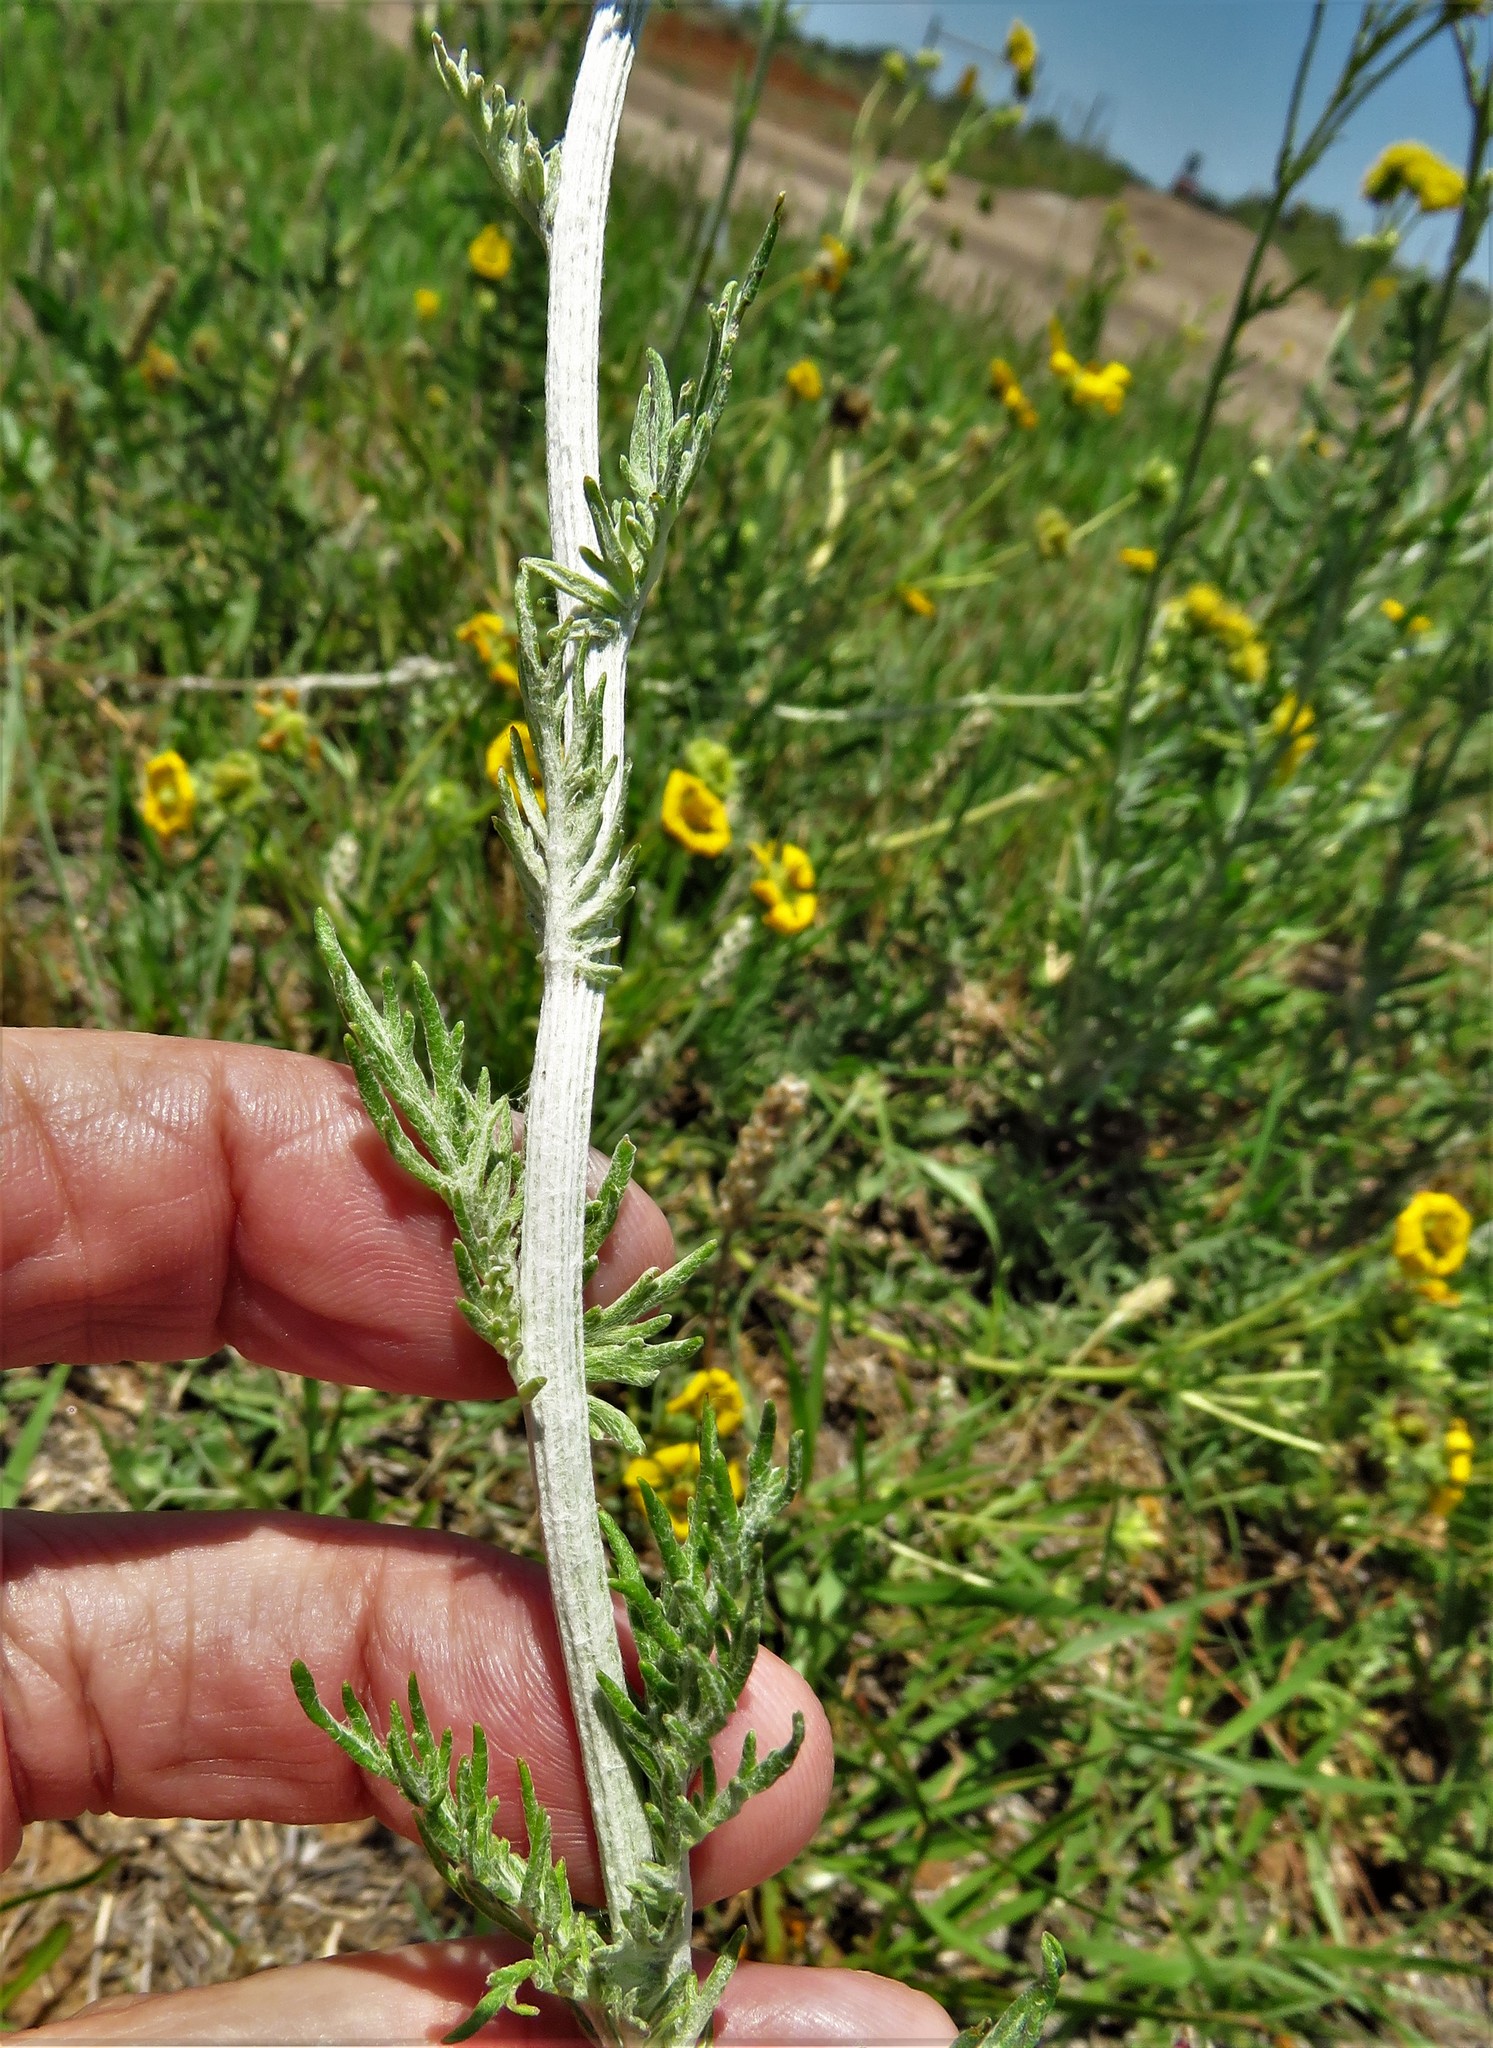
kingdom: Plantae
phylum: Tracheophyta
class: Magnoliopsida
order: Asterales
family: Asteraceae
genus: Hymenopappus
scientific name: Hymenopappus flavescens
